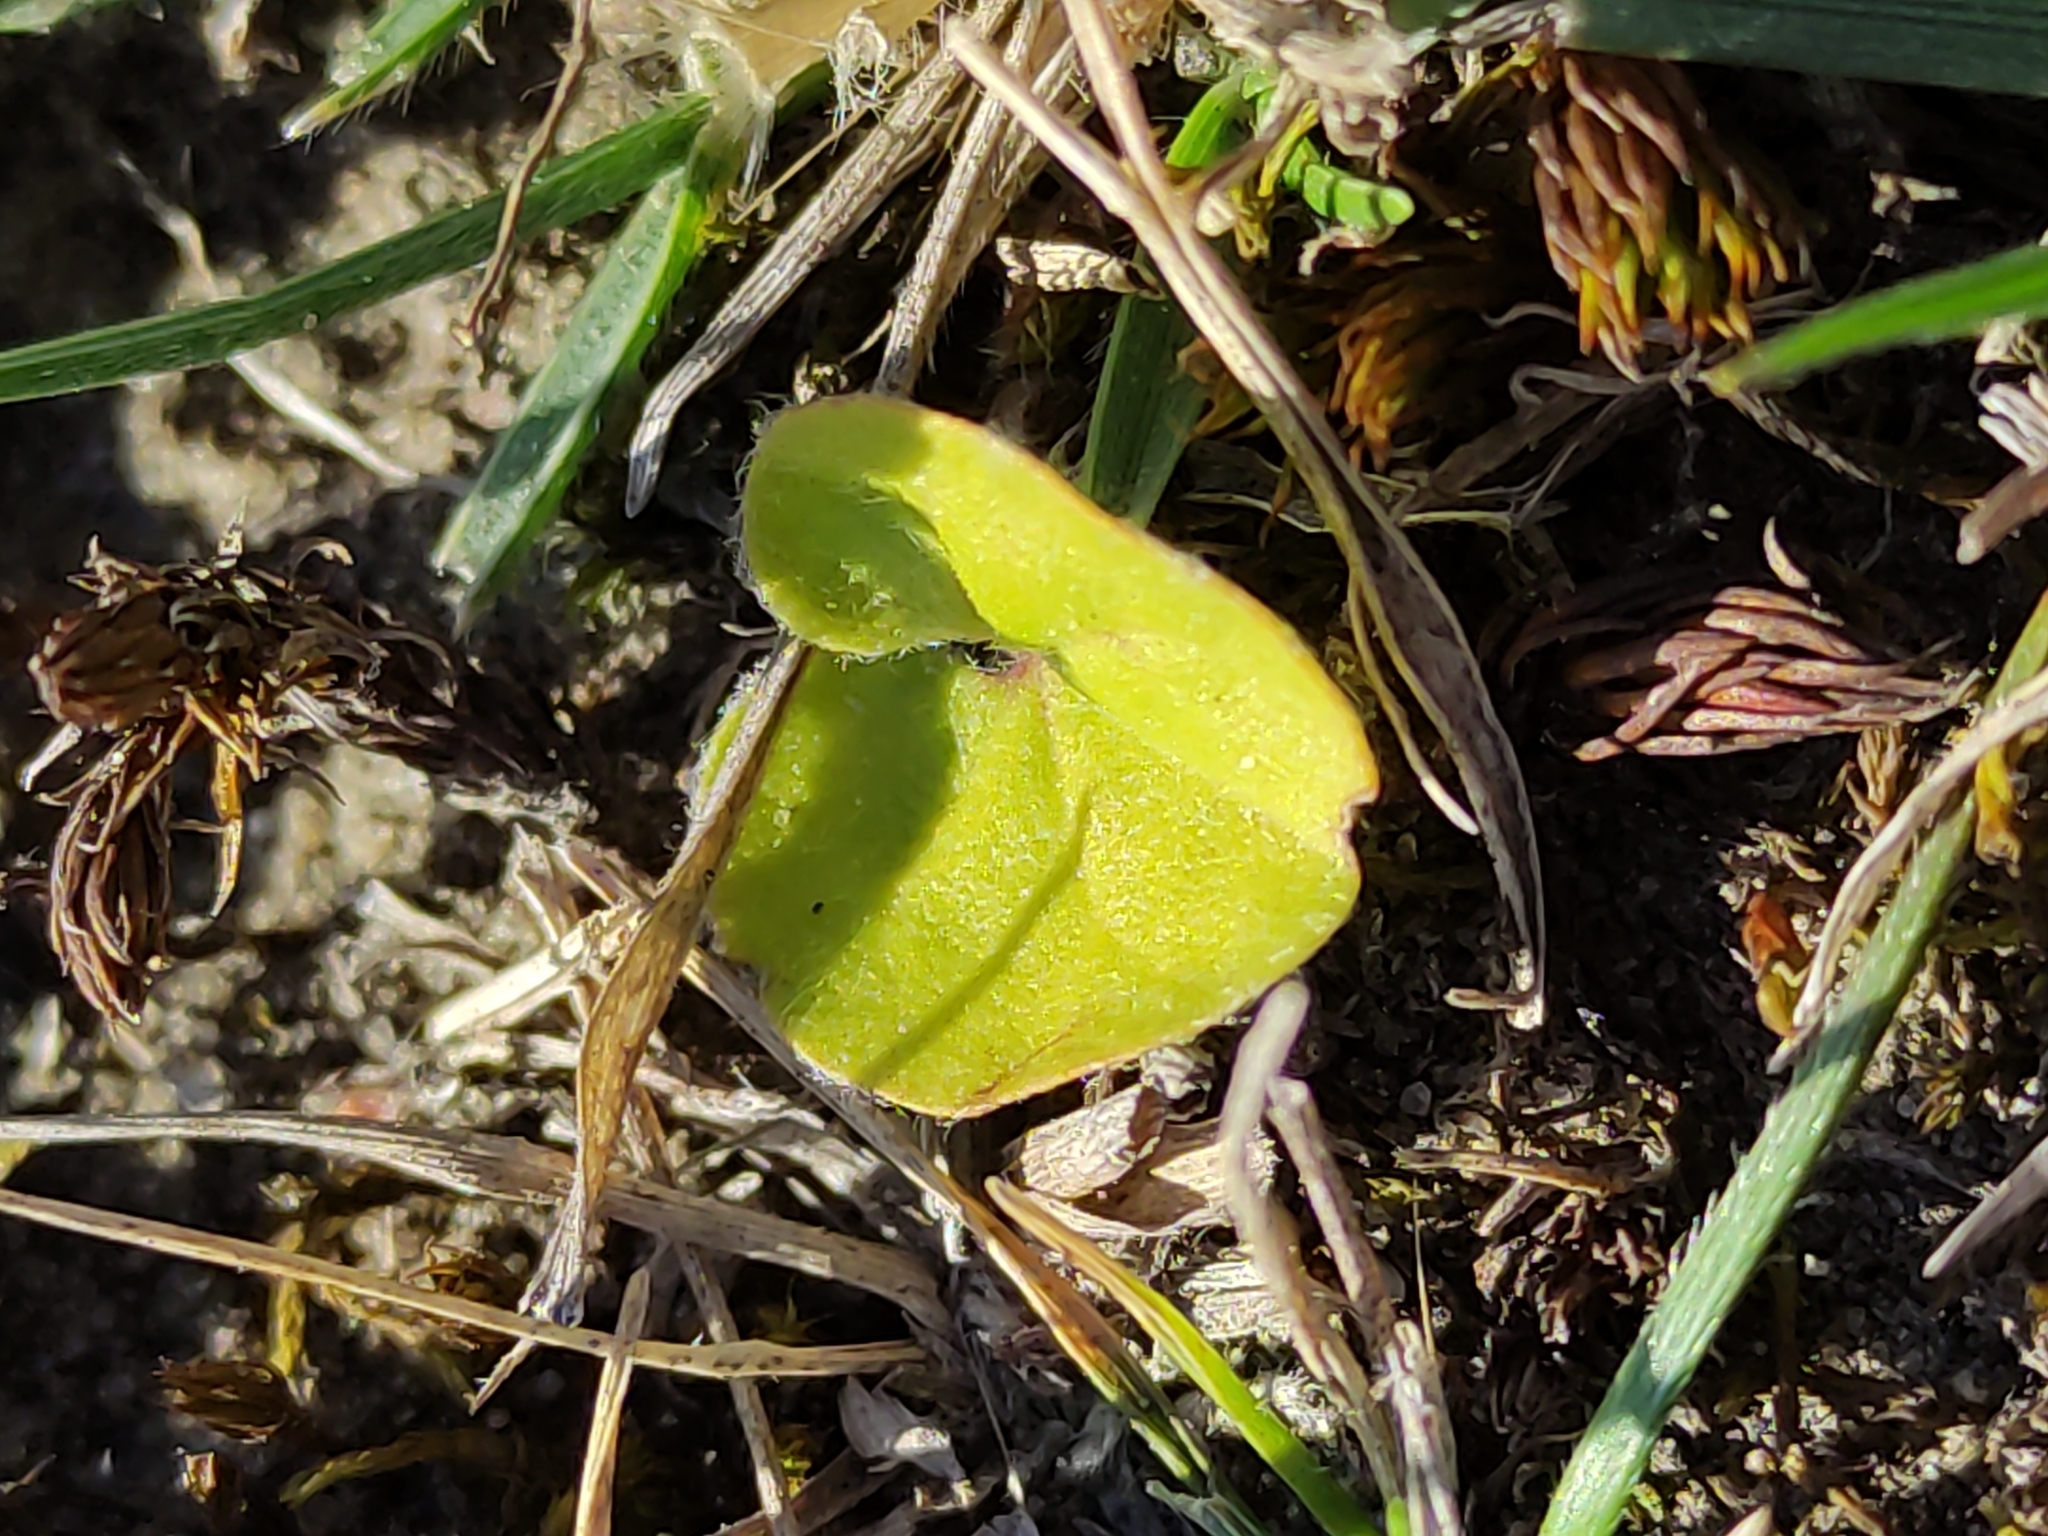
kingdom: Plantae
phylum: Tracheophyta
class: Magnoliopsida
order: Solanales
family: Convolvulaceae
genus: Dichondra
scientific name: Dichondra repens
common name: Kidneyweed
